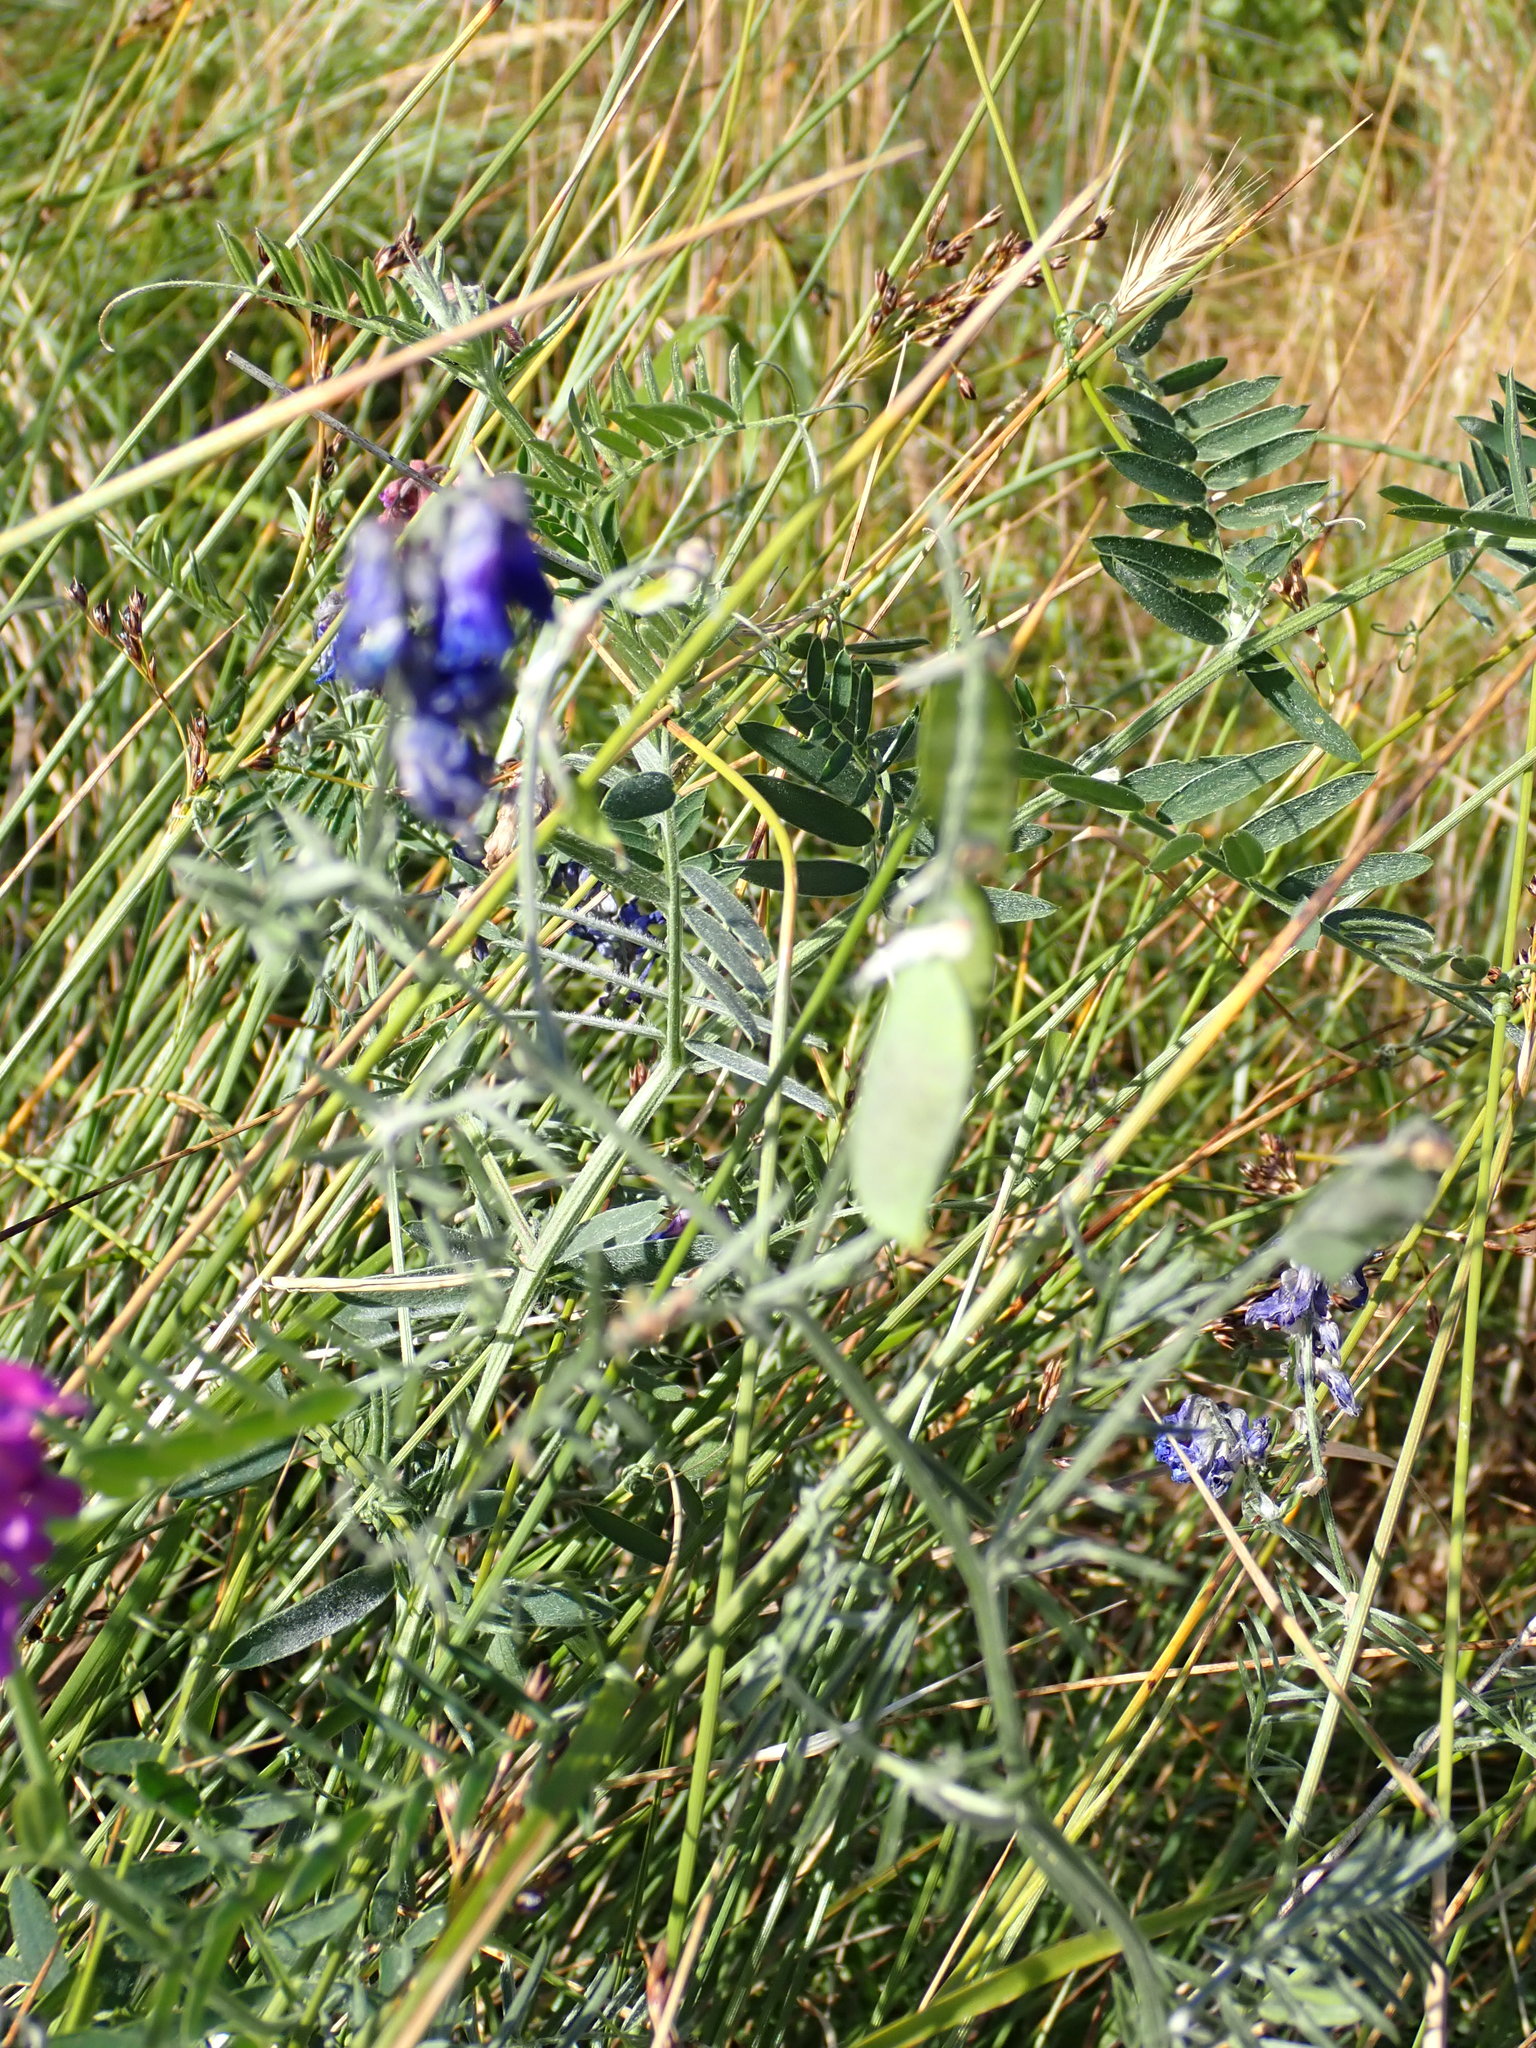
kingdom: Plantae
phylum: Tracheophyta
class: Magnoliopsida
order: Fabales
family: Fabaceae
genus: Vicia
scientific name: Vicia cracca
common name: Bird vetch
